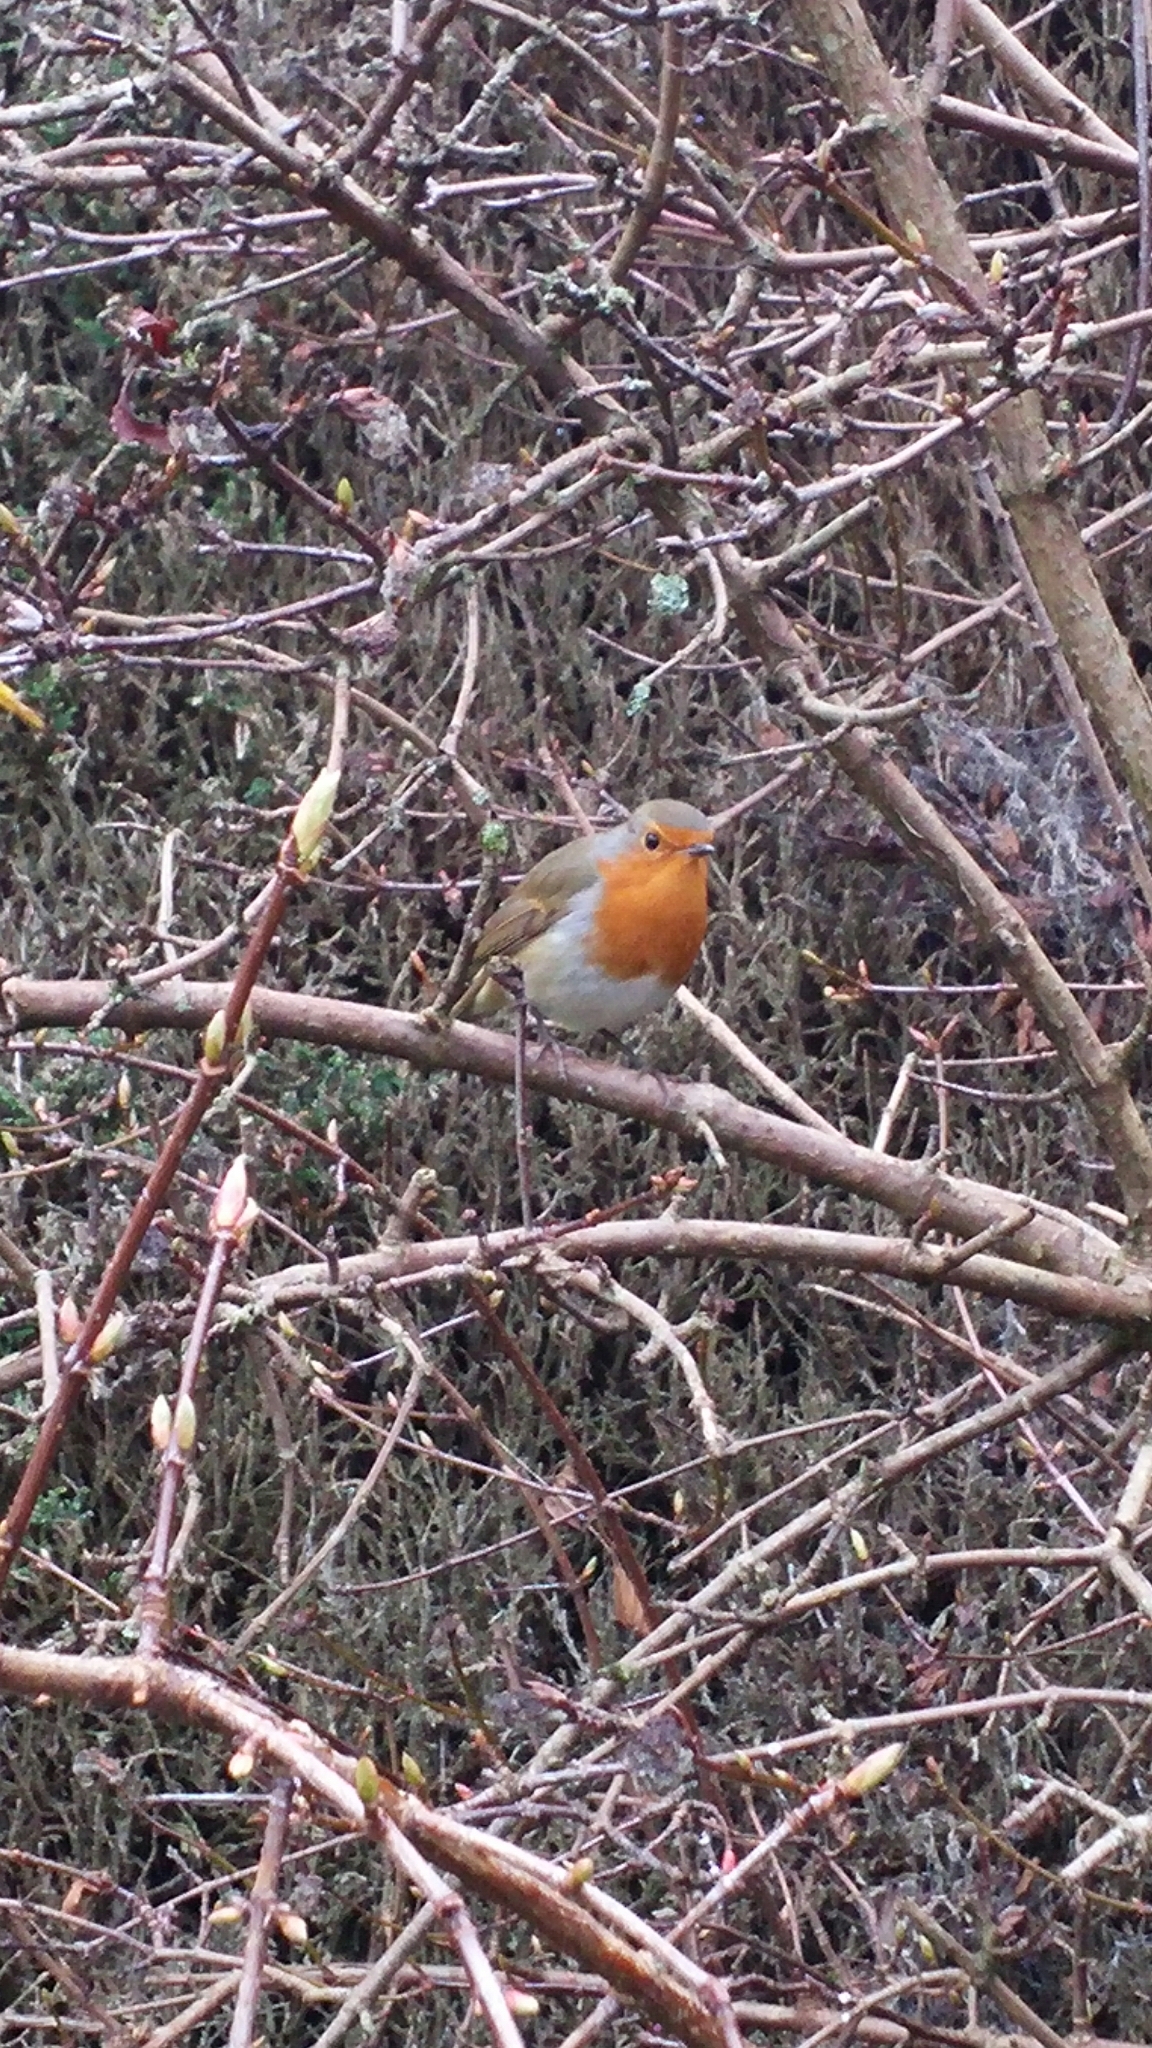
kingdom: Animalia
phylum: Chordata
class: Aves
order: Passeriformes
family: Muscicapidae
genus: Erithacus
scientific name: Erithacus rubecula
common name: European robin
